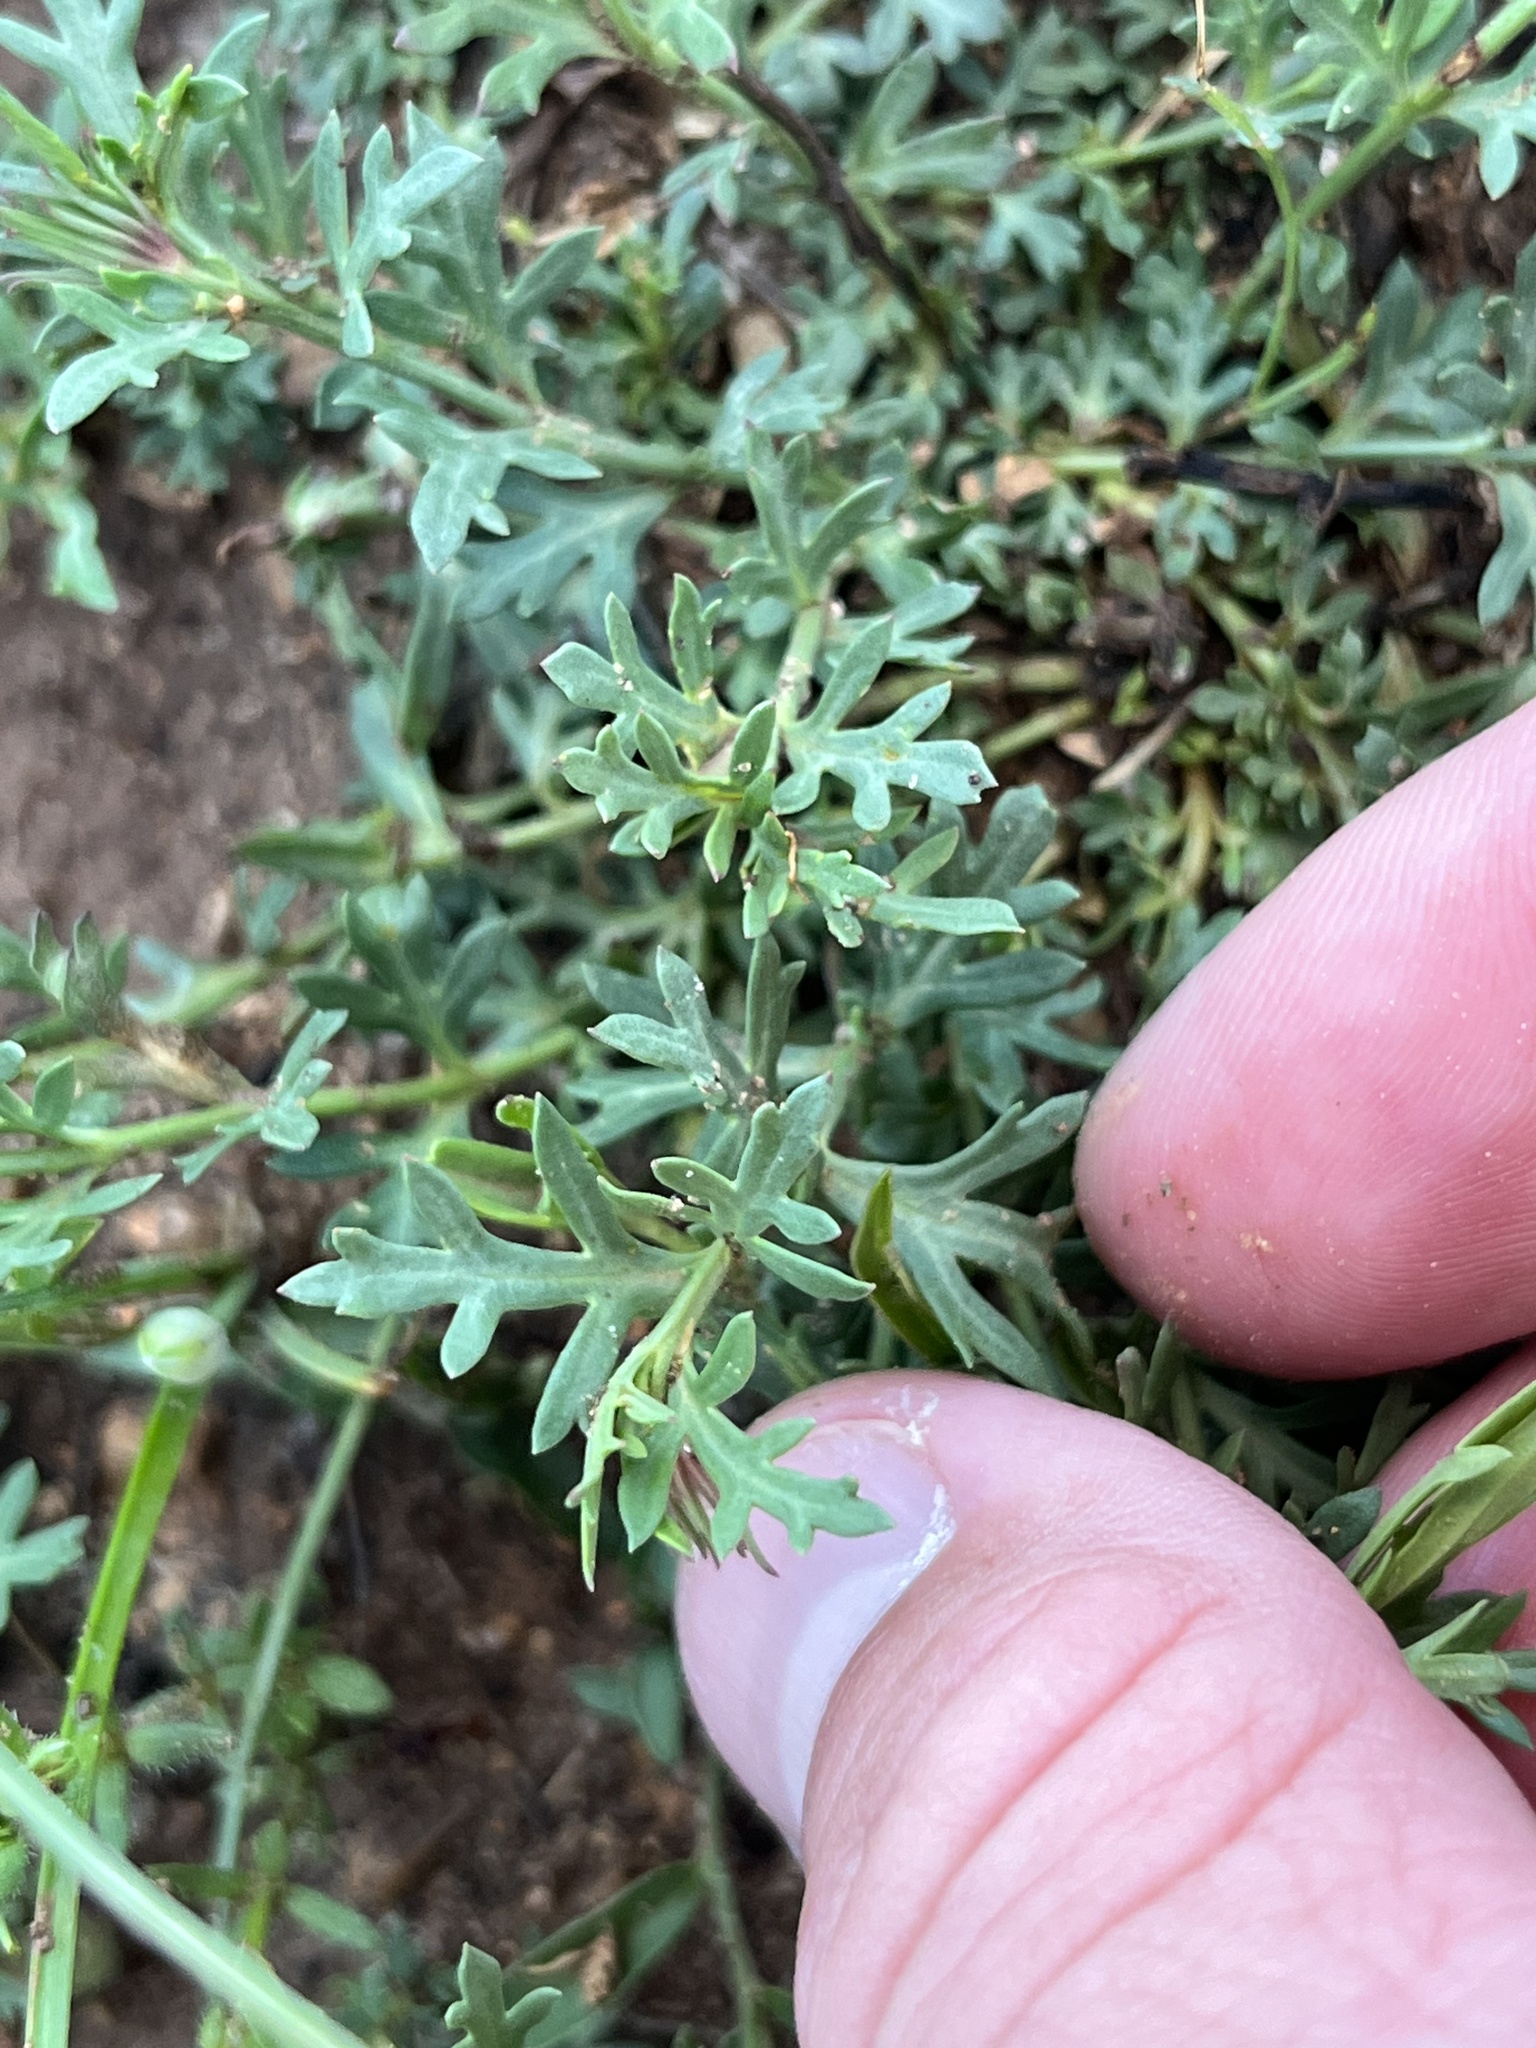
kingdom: Plantae
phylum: Tracheophyta
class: Magnoliopsida
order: Lamiales
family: Oleaceae
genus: Menodora
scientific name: Menodora heterophylla
